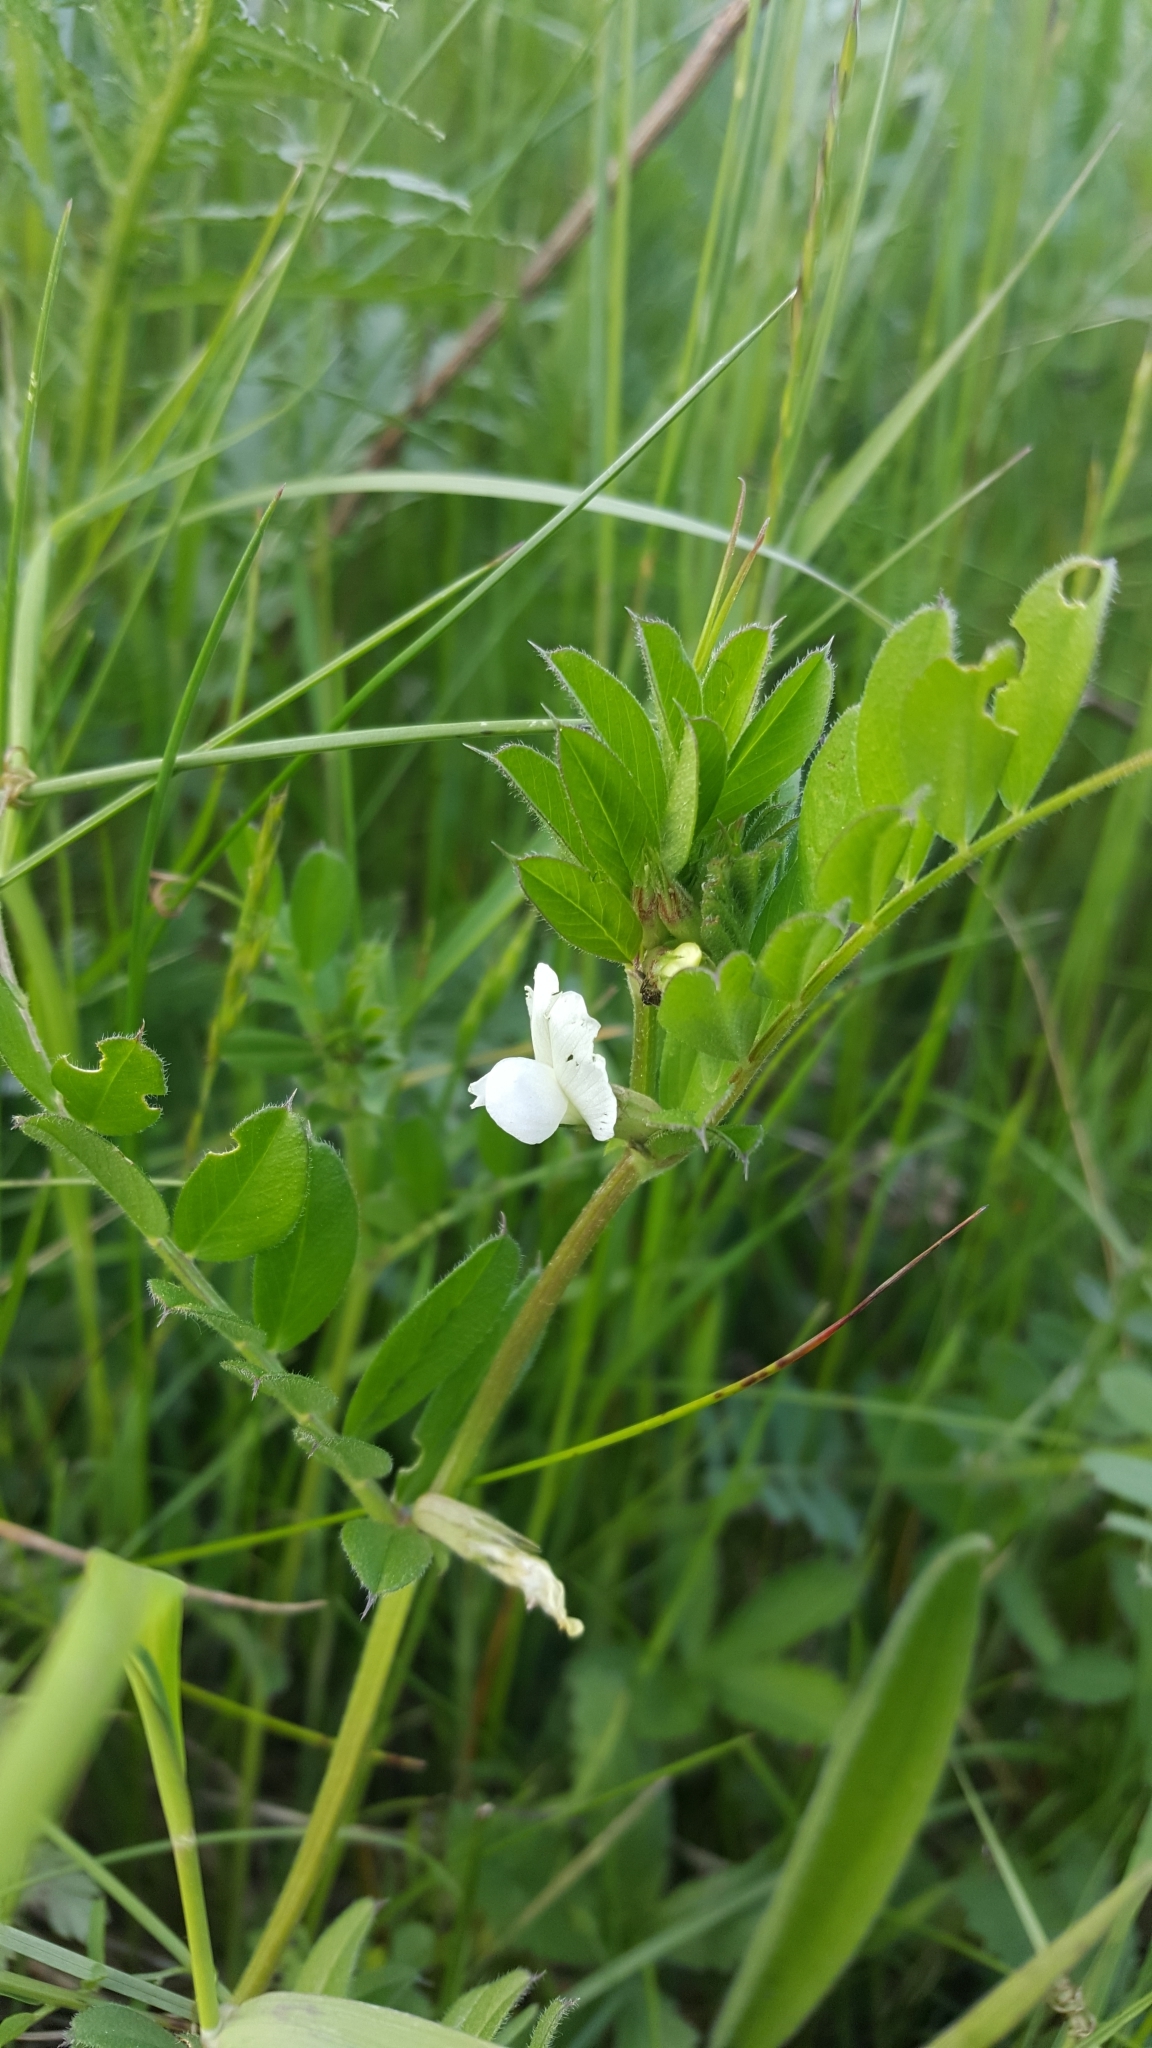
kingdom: Plantae
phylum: Tracheophyta
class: Magnoliopsida
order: Fabales
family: Fabaceae
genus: Vicia
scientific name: Vicia sativa
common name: Garden vetch
